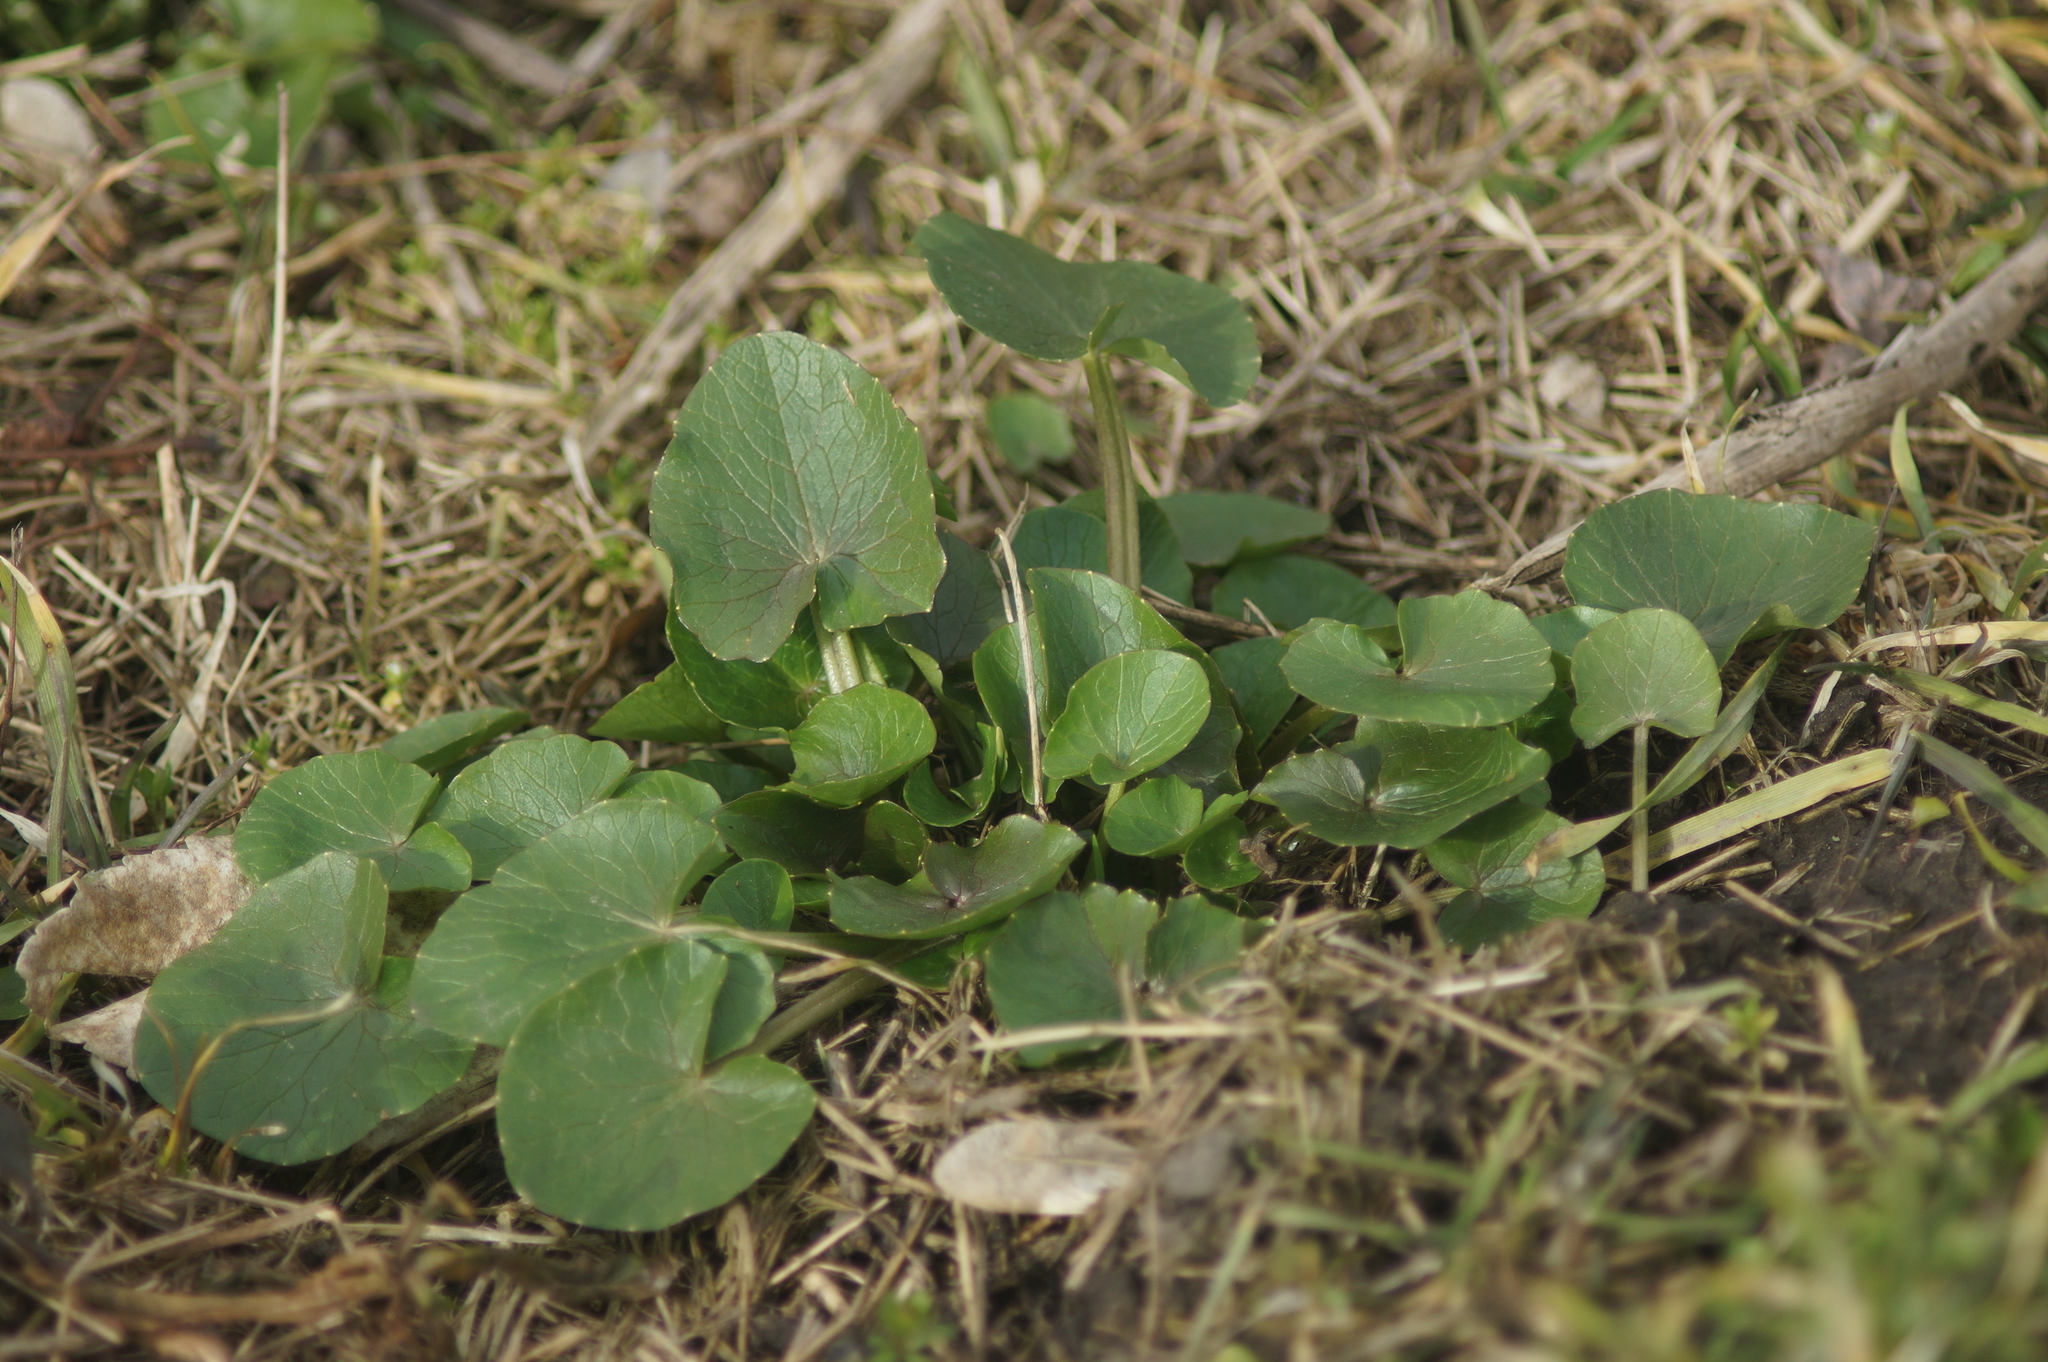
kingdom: Plantae
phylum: Tracheophyta
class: Magnoliopsida
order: Ranunculales
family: Ranunculaceae
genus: Ficaria
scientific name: Ficaria verna
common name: Lesser celandine
